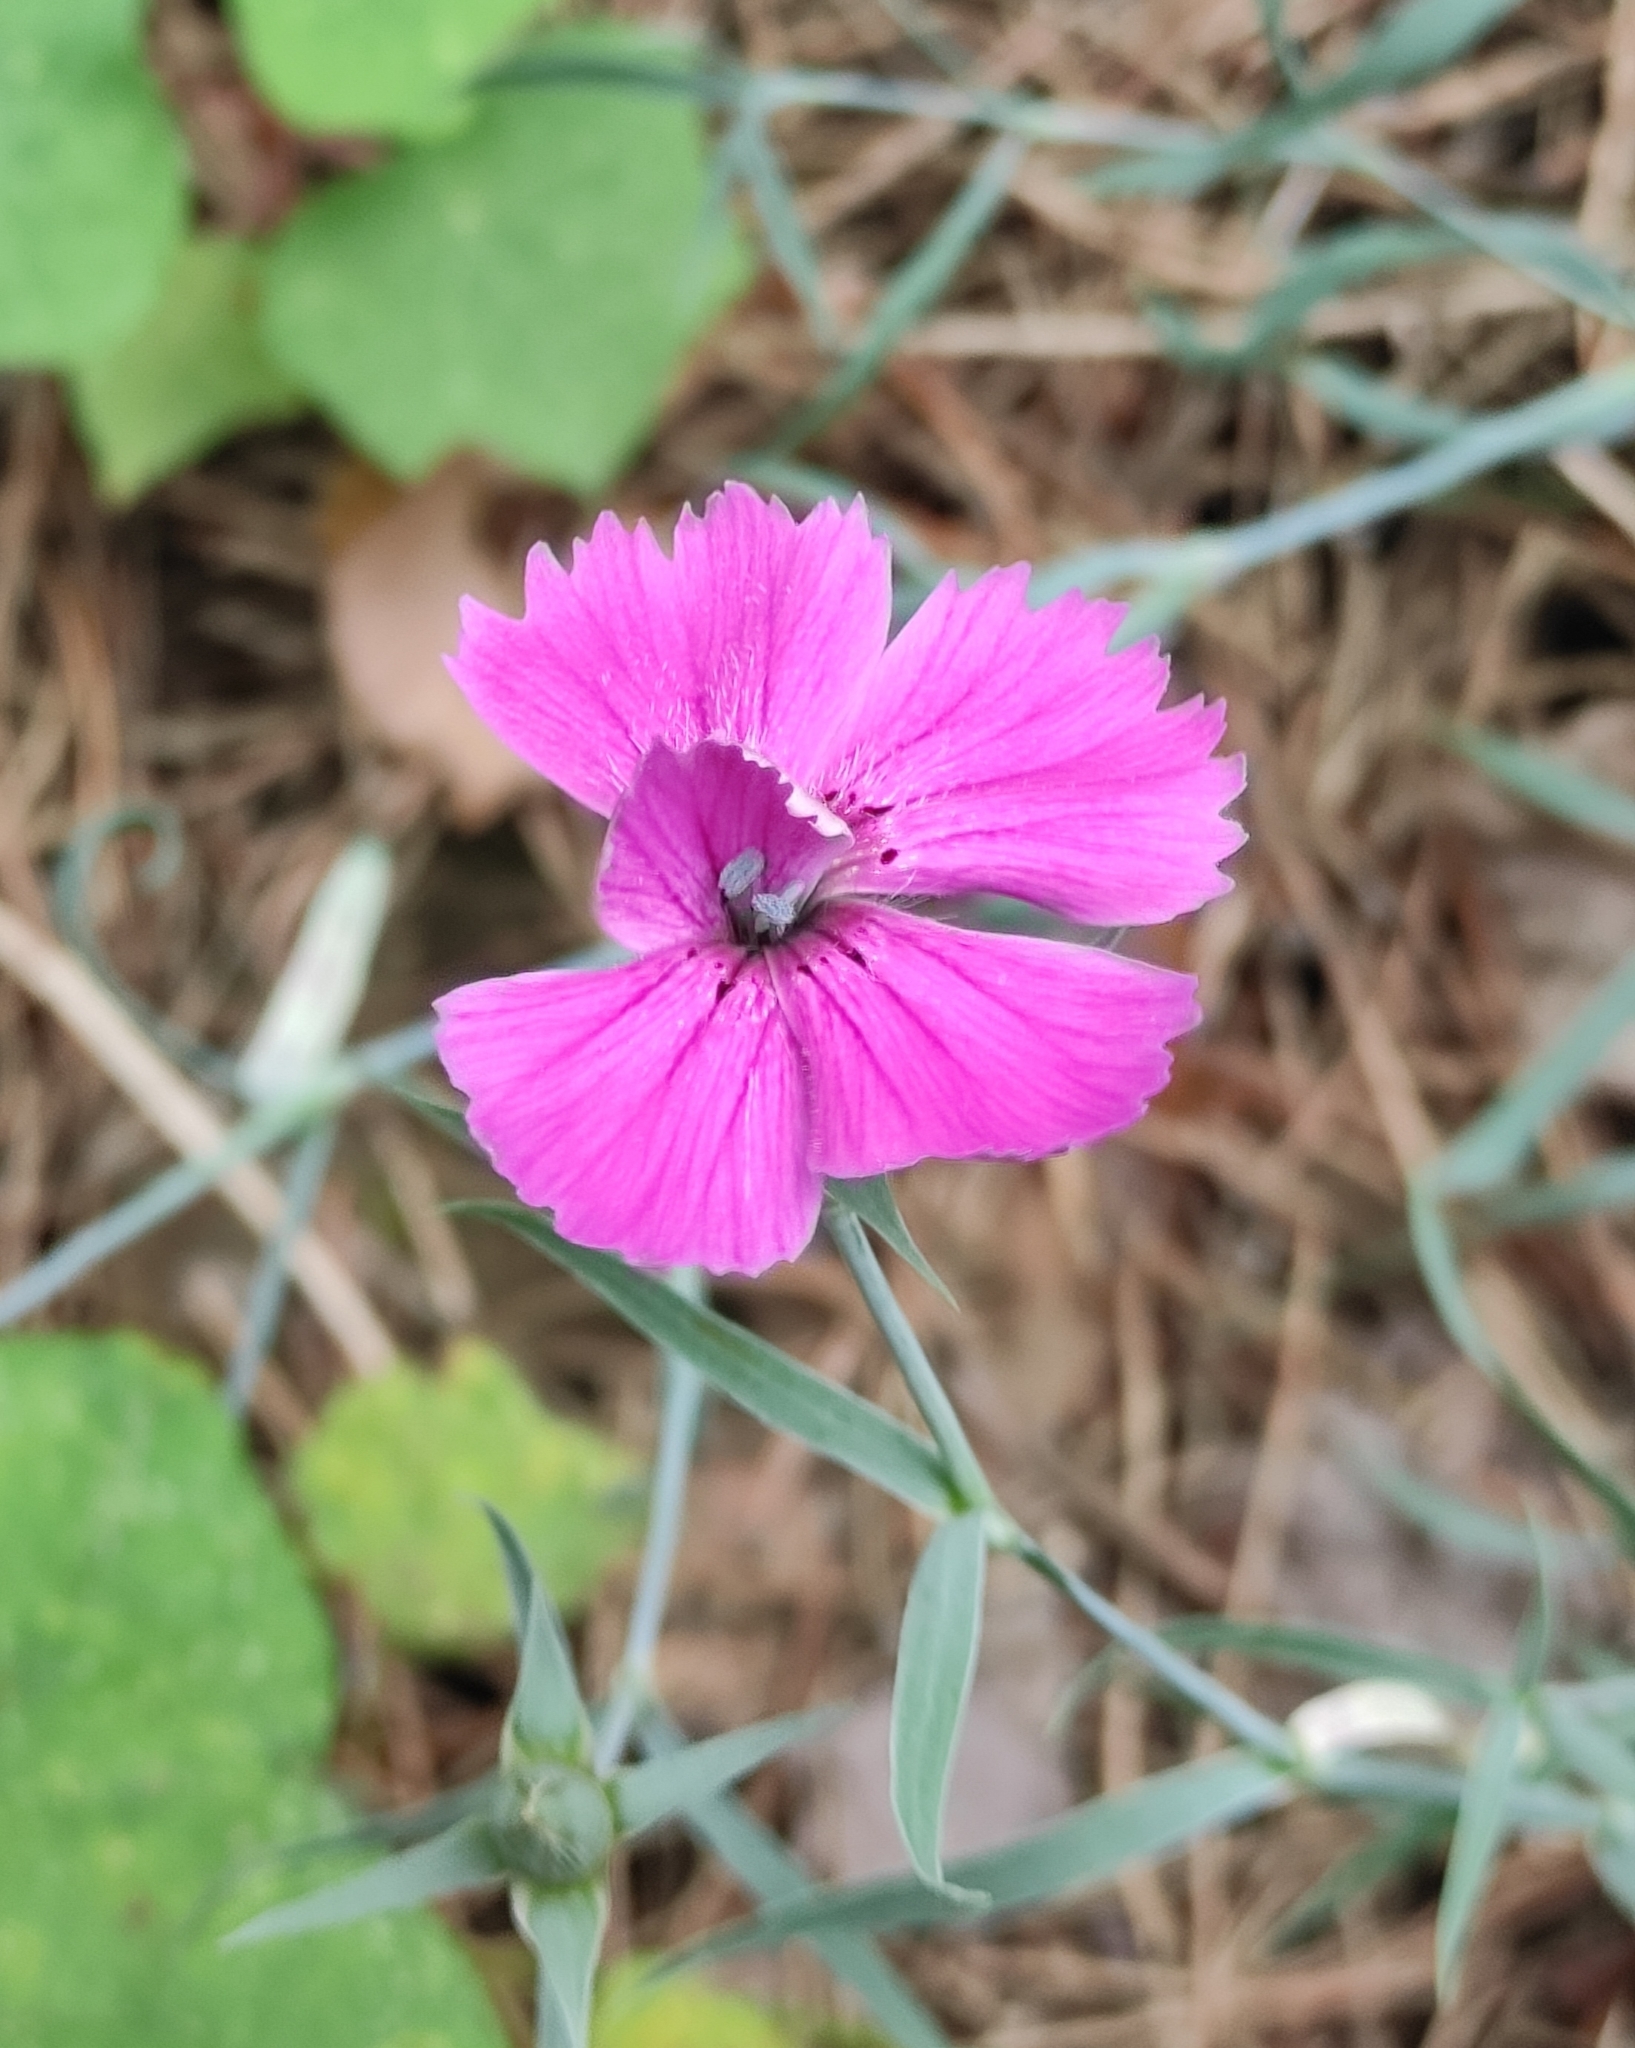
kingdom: Plantae
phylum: Tracheophyta
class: Magnoliopsida
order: Caryophyllales
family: Caryophyllaceae
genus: Dianthus
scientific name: Dianthus chinensis
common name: Rainbow pink
